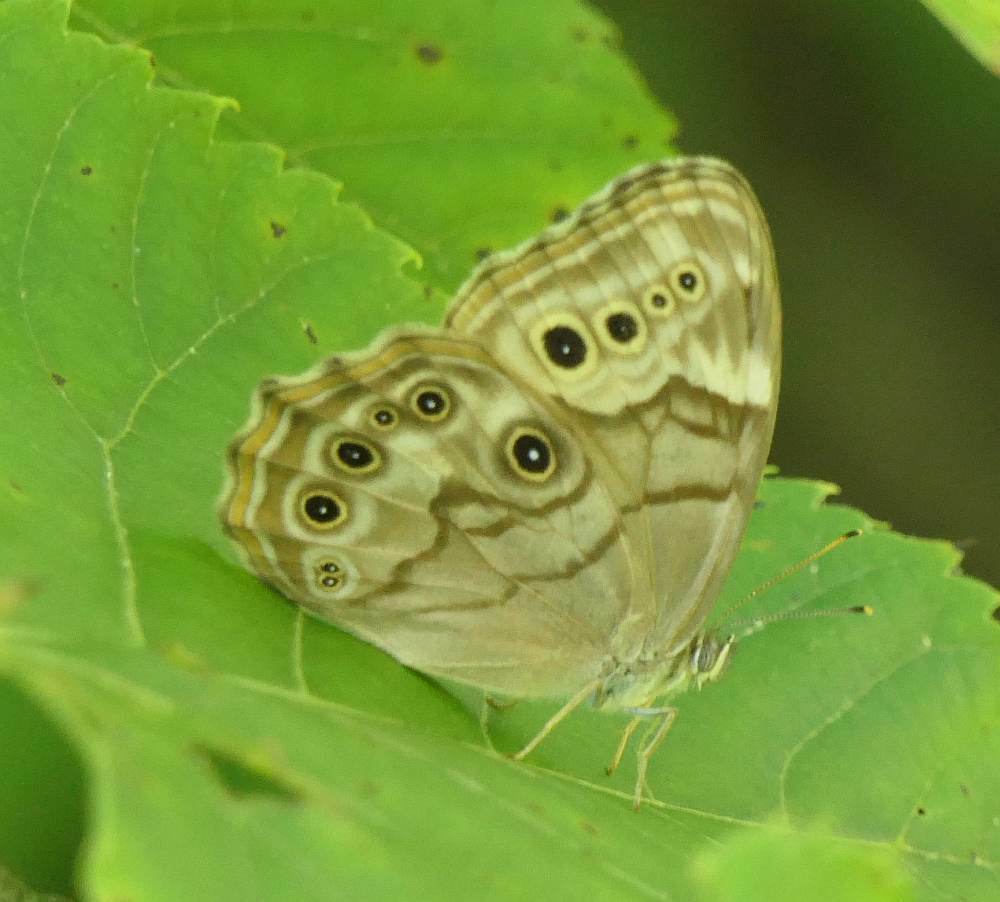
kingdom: Animalia
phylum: Arthropoda
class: Insecta
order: Lepidoptera
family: Nymphalidae
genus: Lethe
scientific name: Lethe anthedon
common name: Northern pearly-eye
